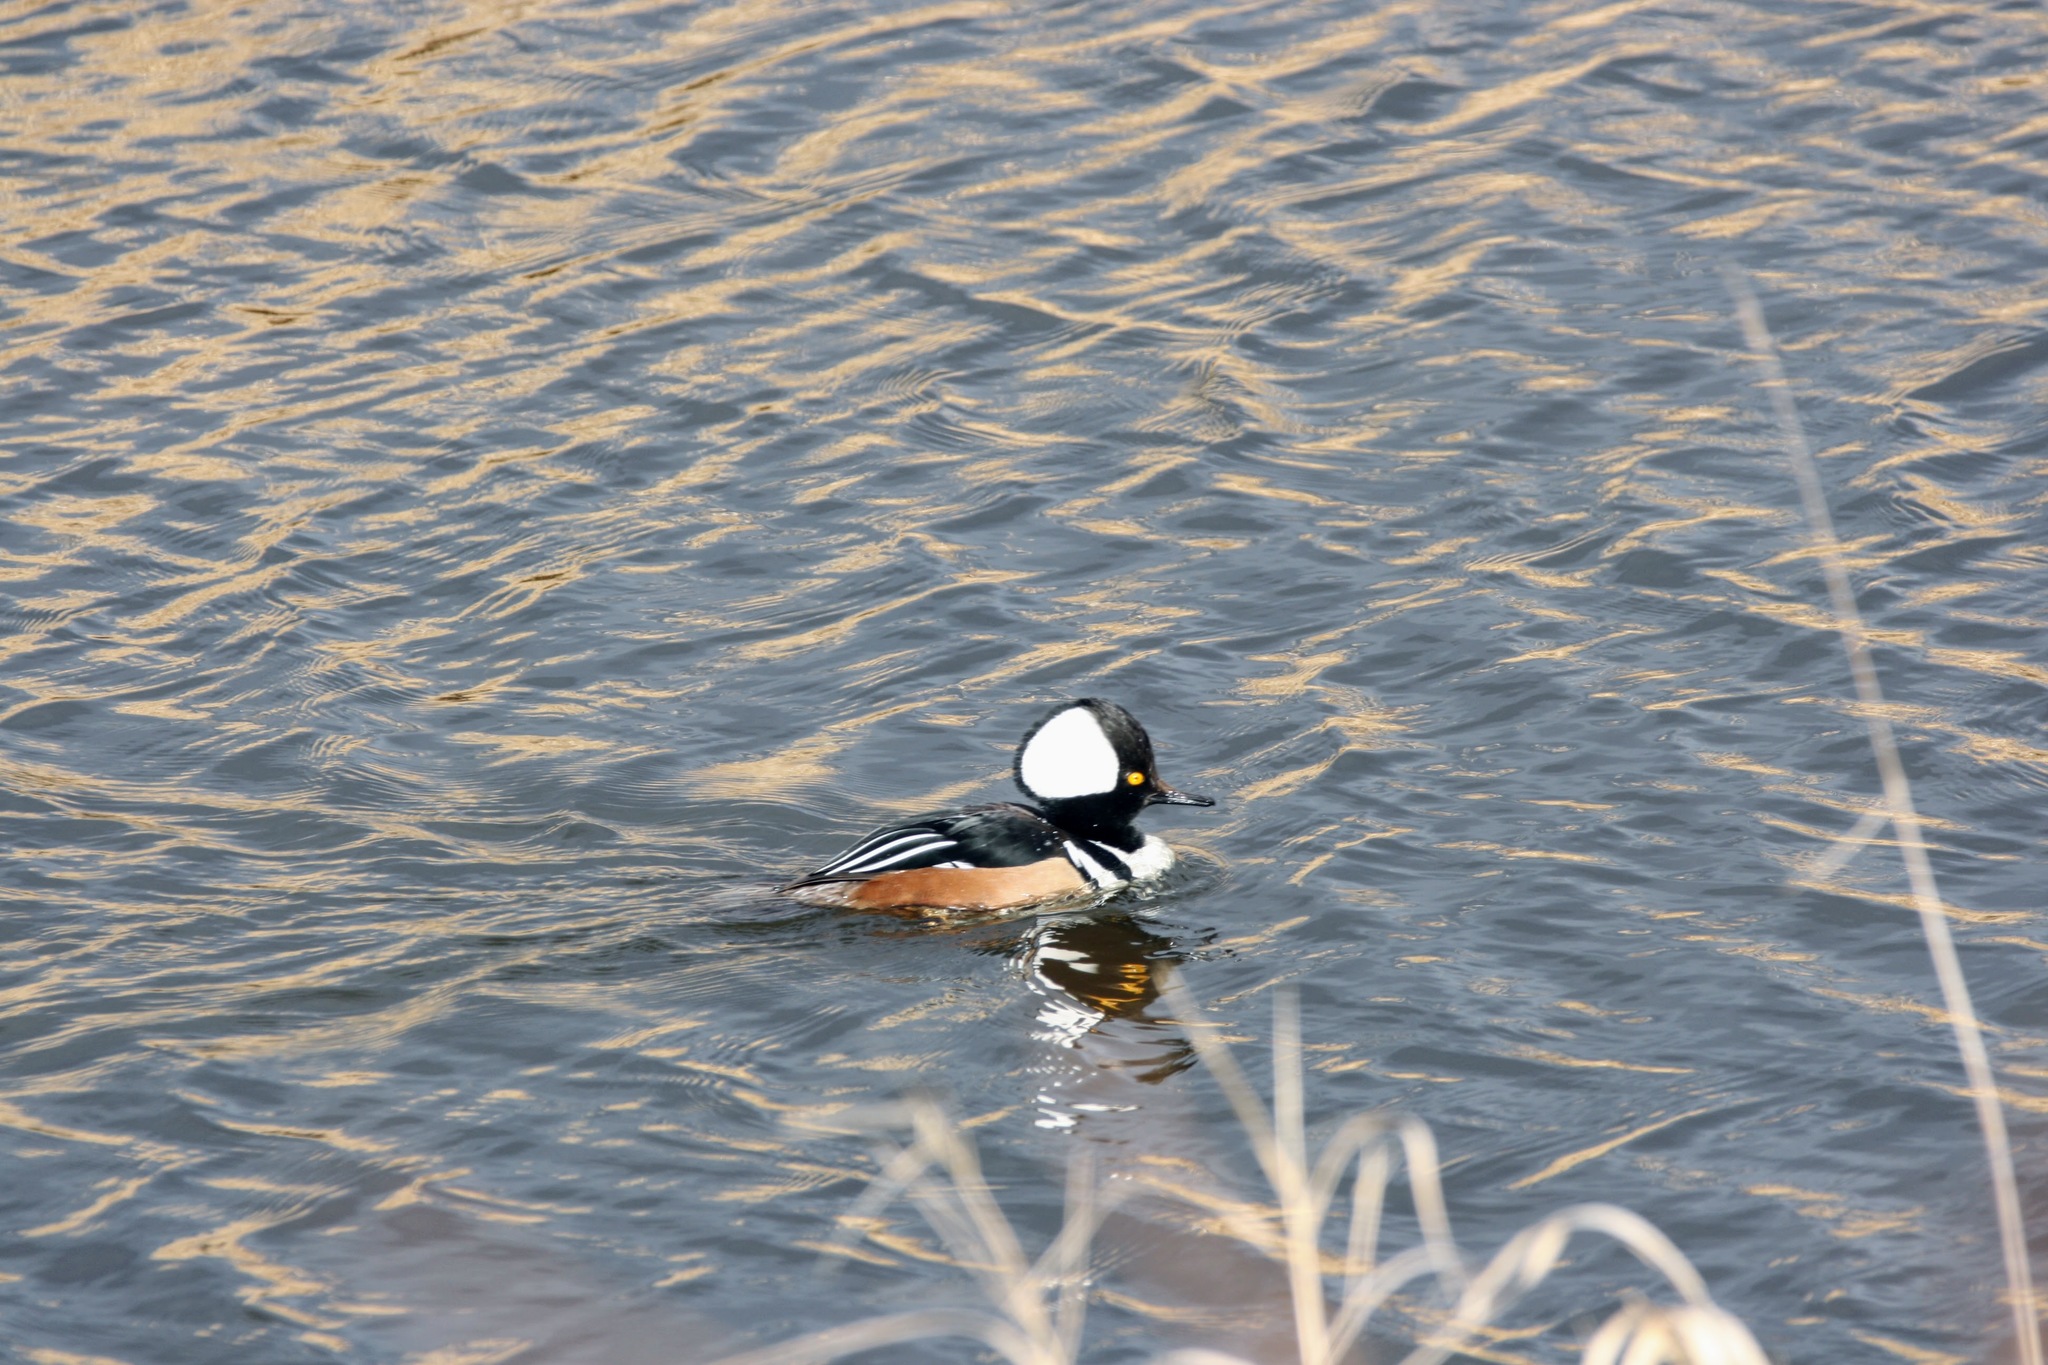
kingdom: Animalia
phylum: Chordata
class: Aves
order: Anseriformes
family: Anatidae
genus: Lophodytes
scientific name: Lophodytes cucullatus
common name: Hooded merganser
